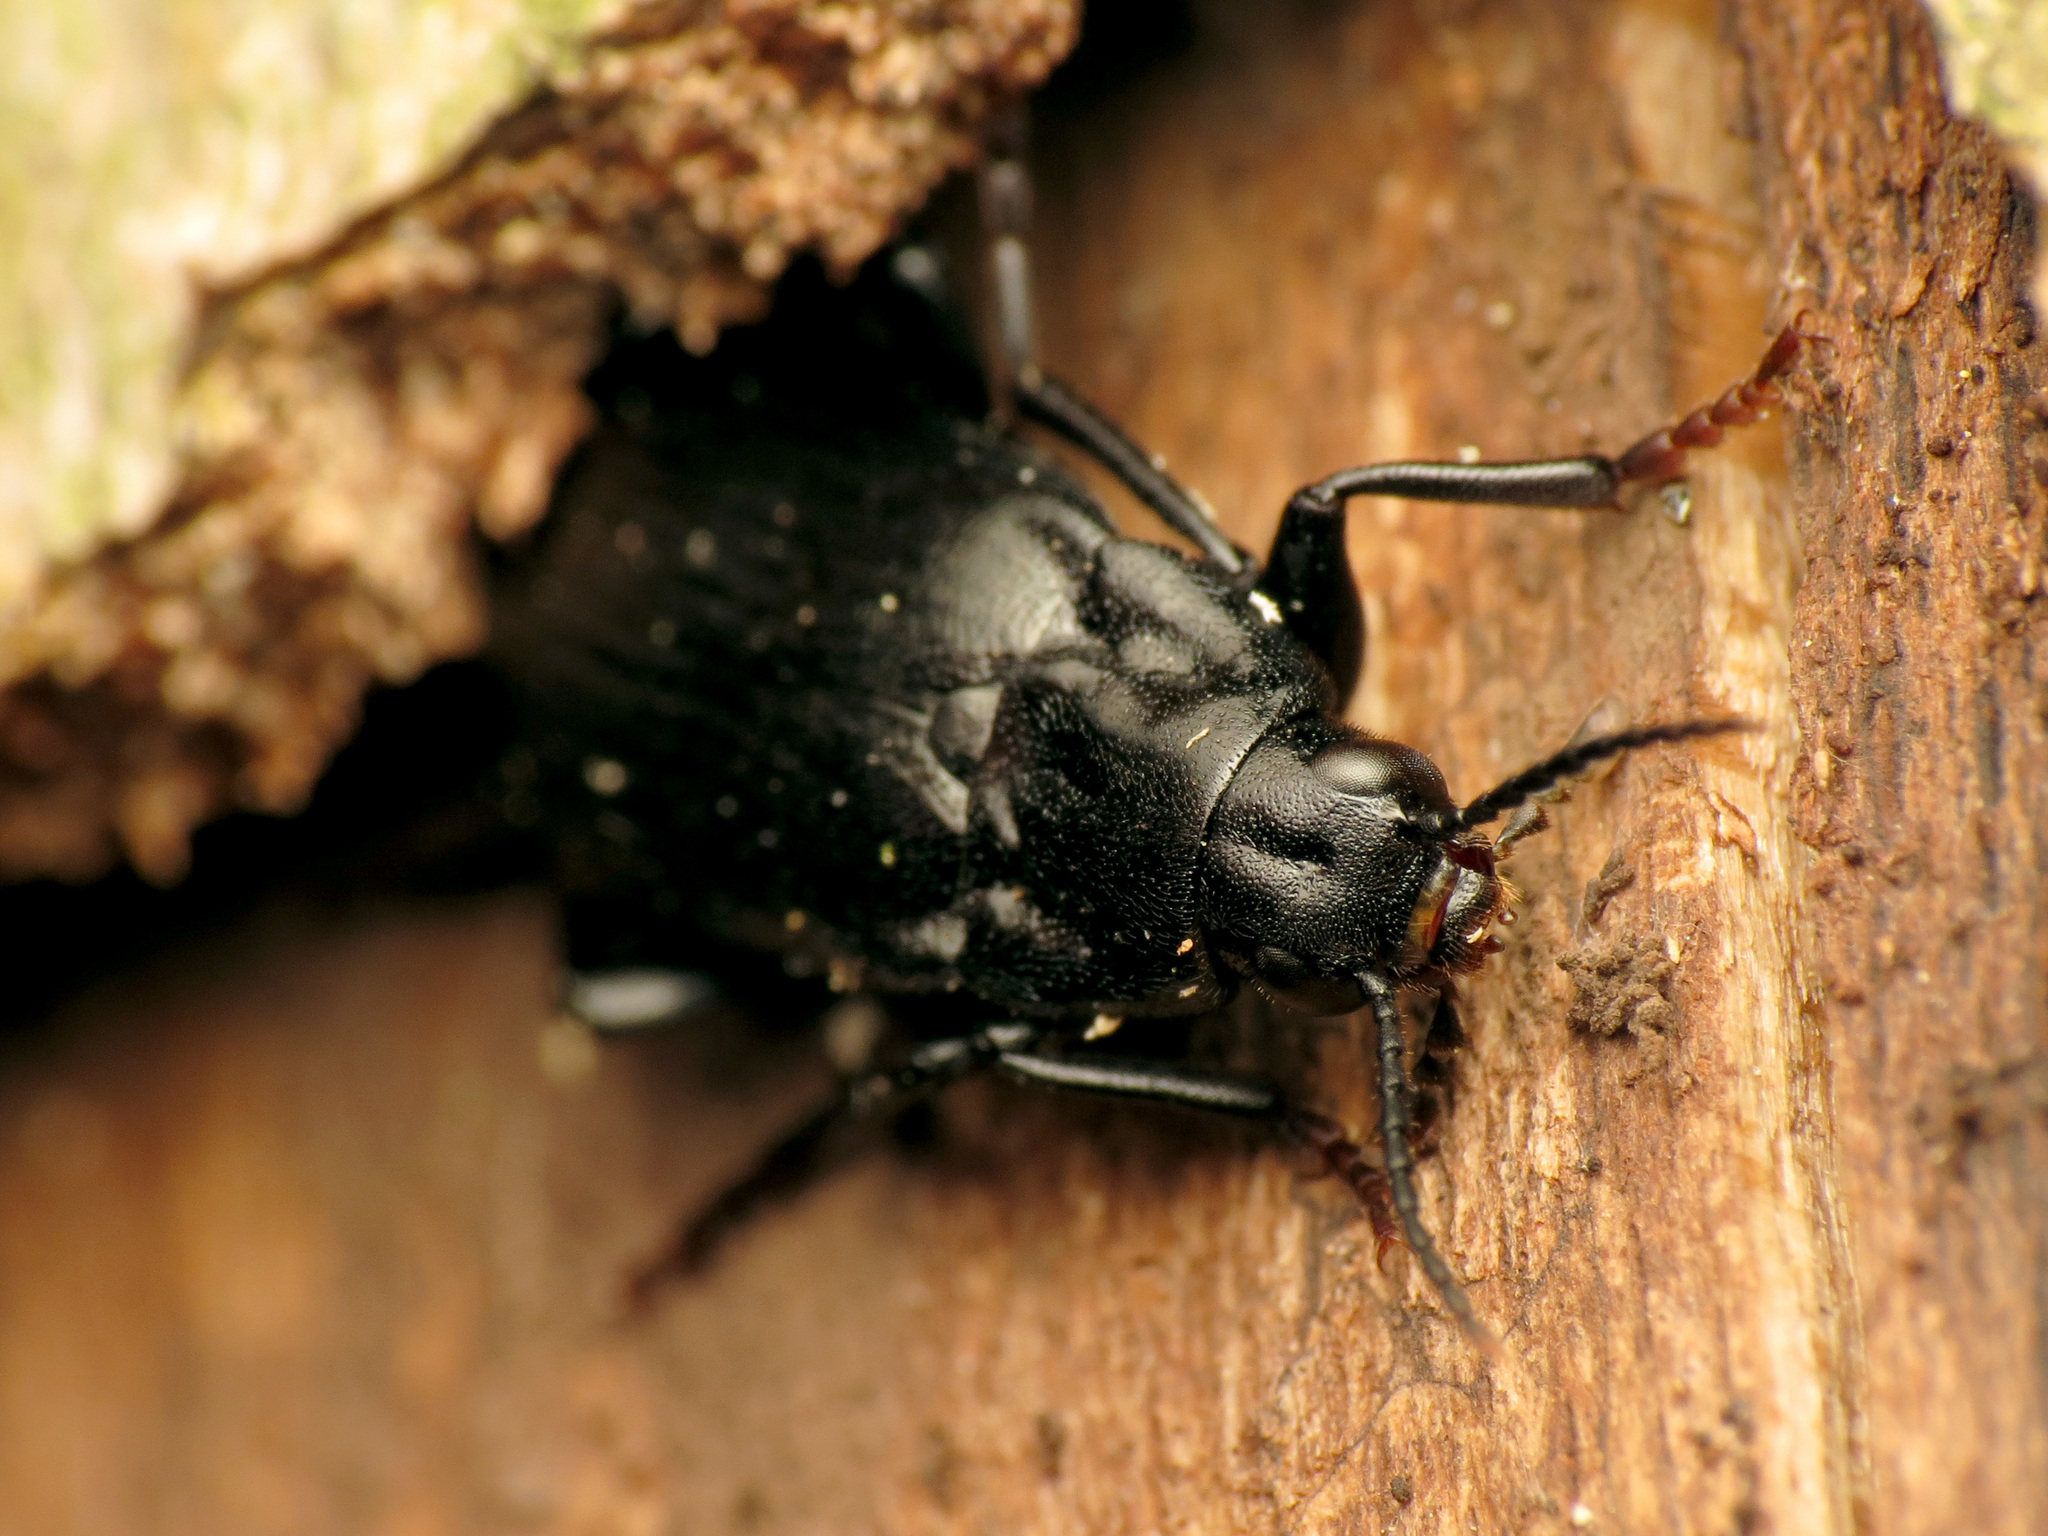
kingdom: Animalia
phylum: Arthropoda
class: Insecta
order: Coleoptera
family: Melandryidae
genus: Melandrya
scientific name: Melandrya striata
